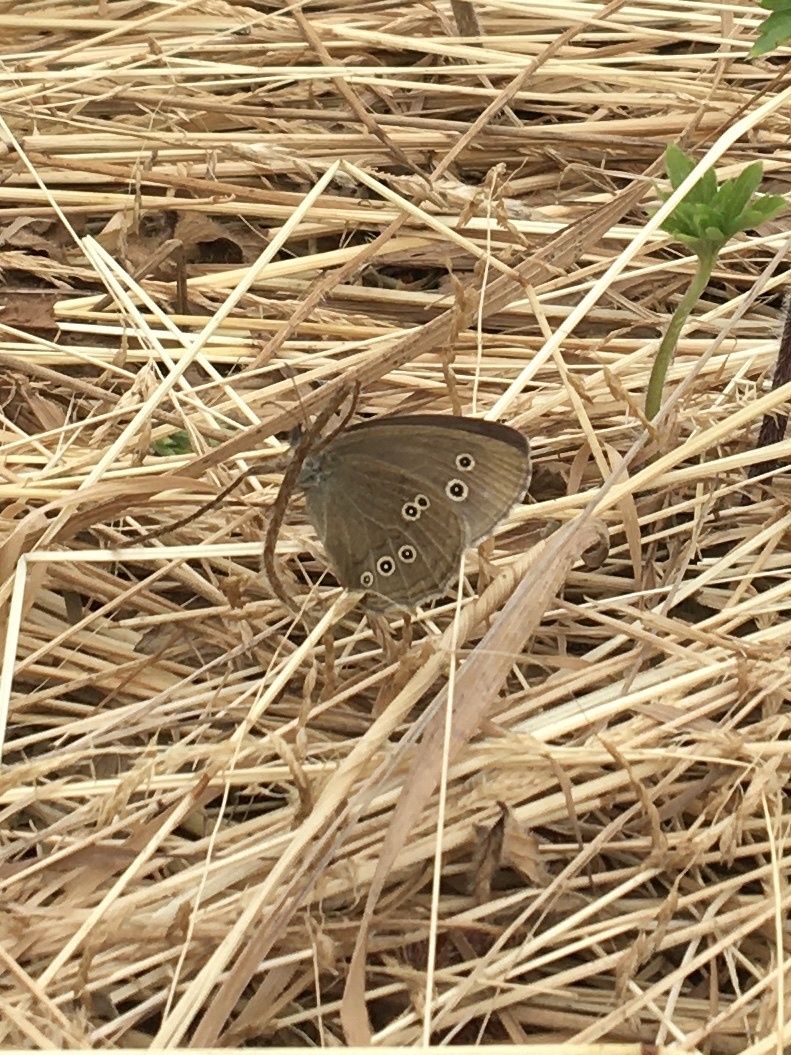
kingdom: Animalia
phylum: Arthropoda
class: Insecta
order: Lepidoptera
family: Nymphalidae
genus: Aphantopus
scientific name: Aphantopus hyperantus
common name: Ringlet
